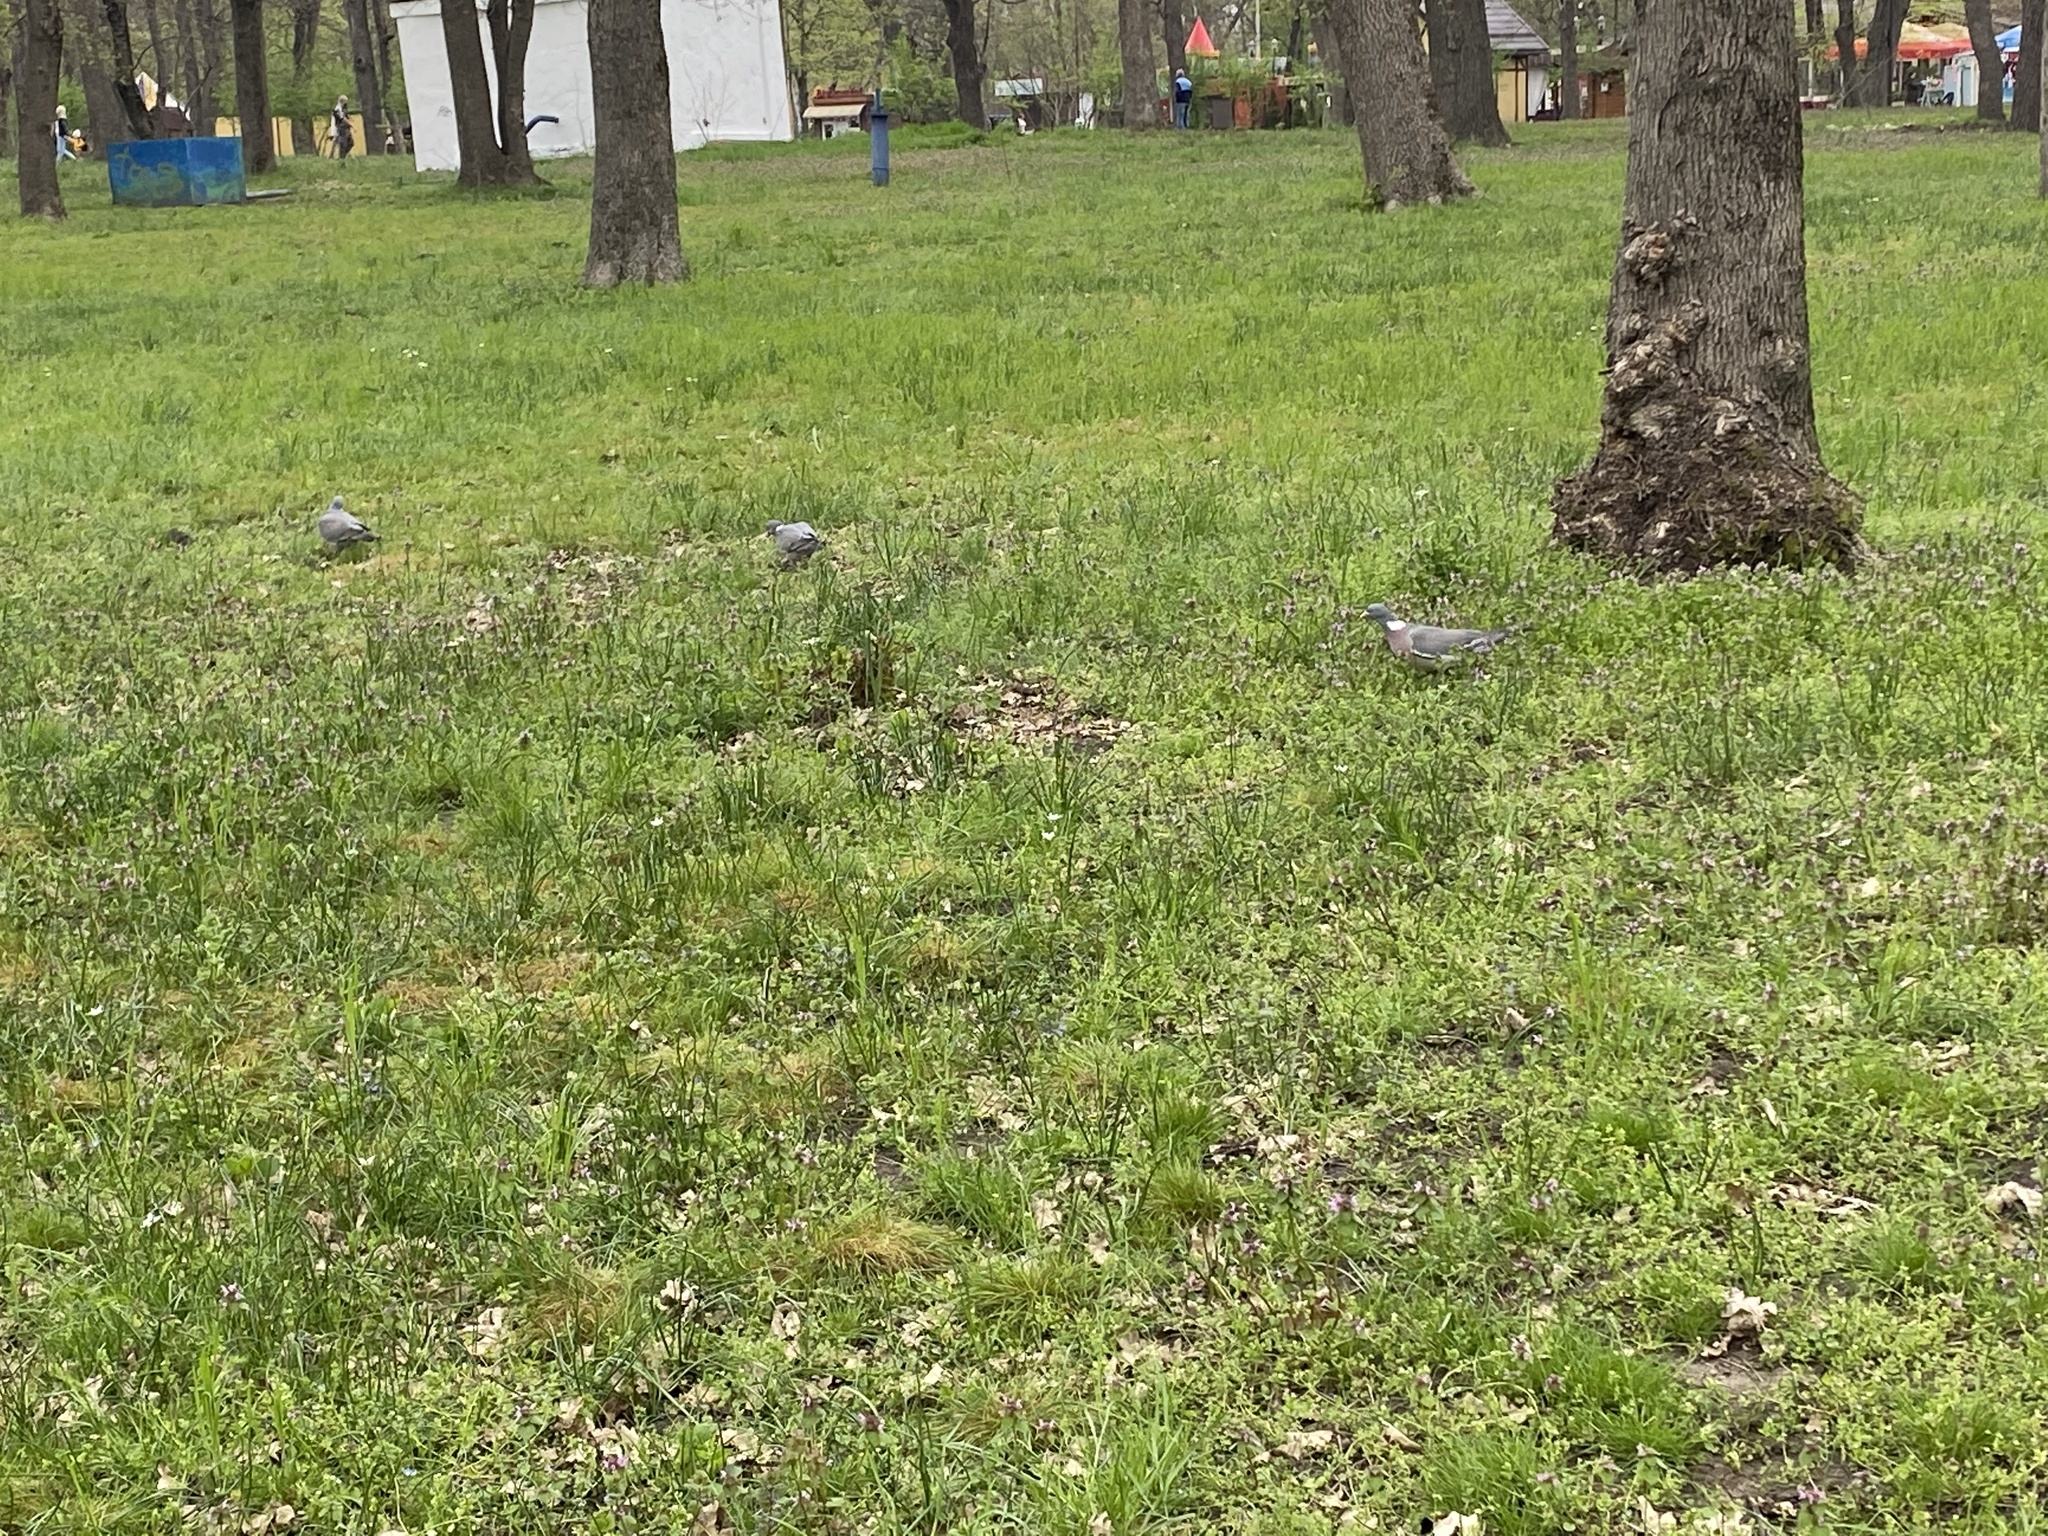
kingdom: Animalia
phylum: Chordata
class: Aves
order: Columbiformes
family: Columbidae
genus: Columba
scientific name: Columba palumbus
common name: Common wood pigeon
